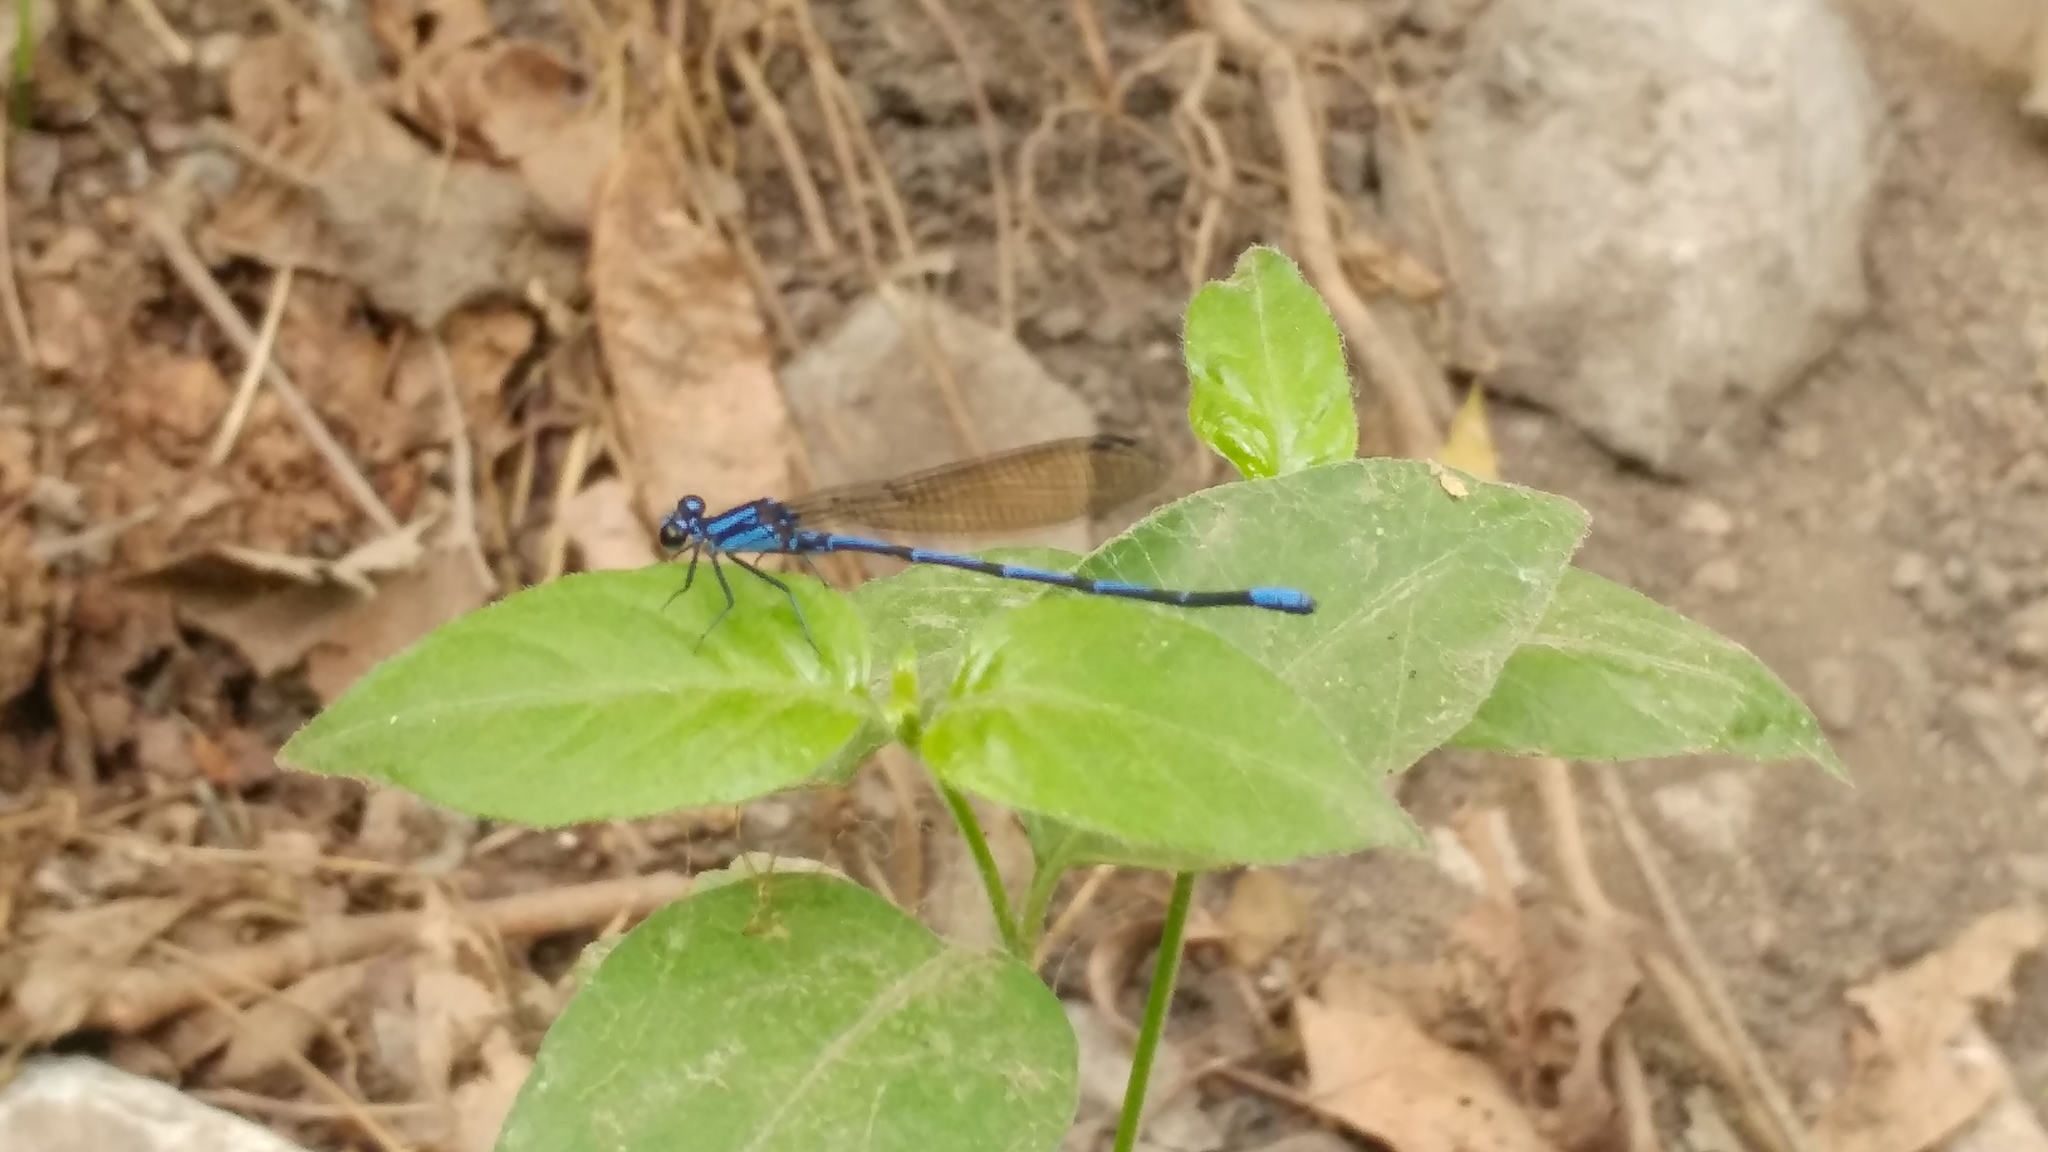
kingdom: Animalia
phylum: Arthropoda
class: Insecta
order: Odonata
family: Coenagrionidae
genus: Argia
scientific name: Argia oculata
